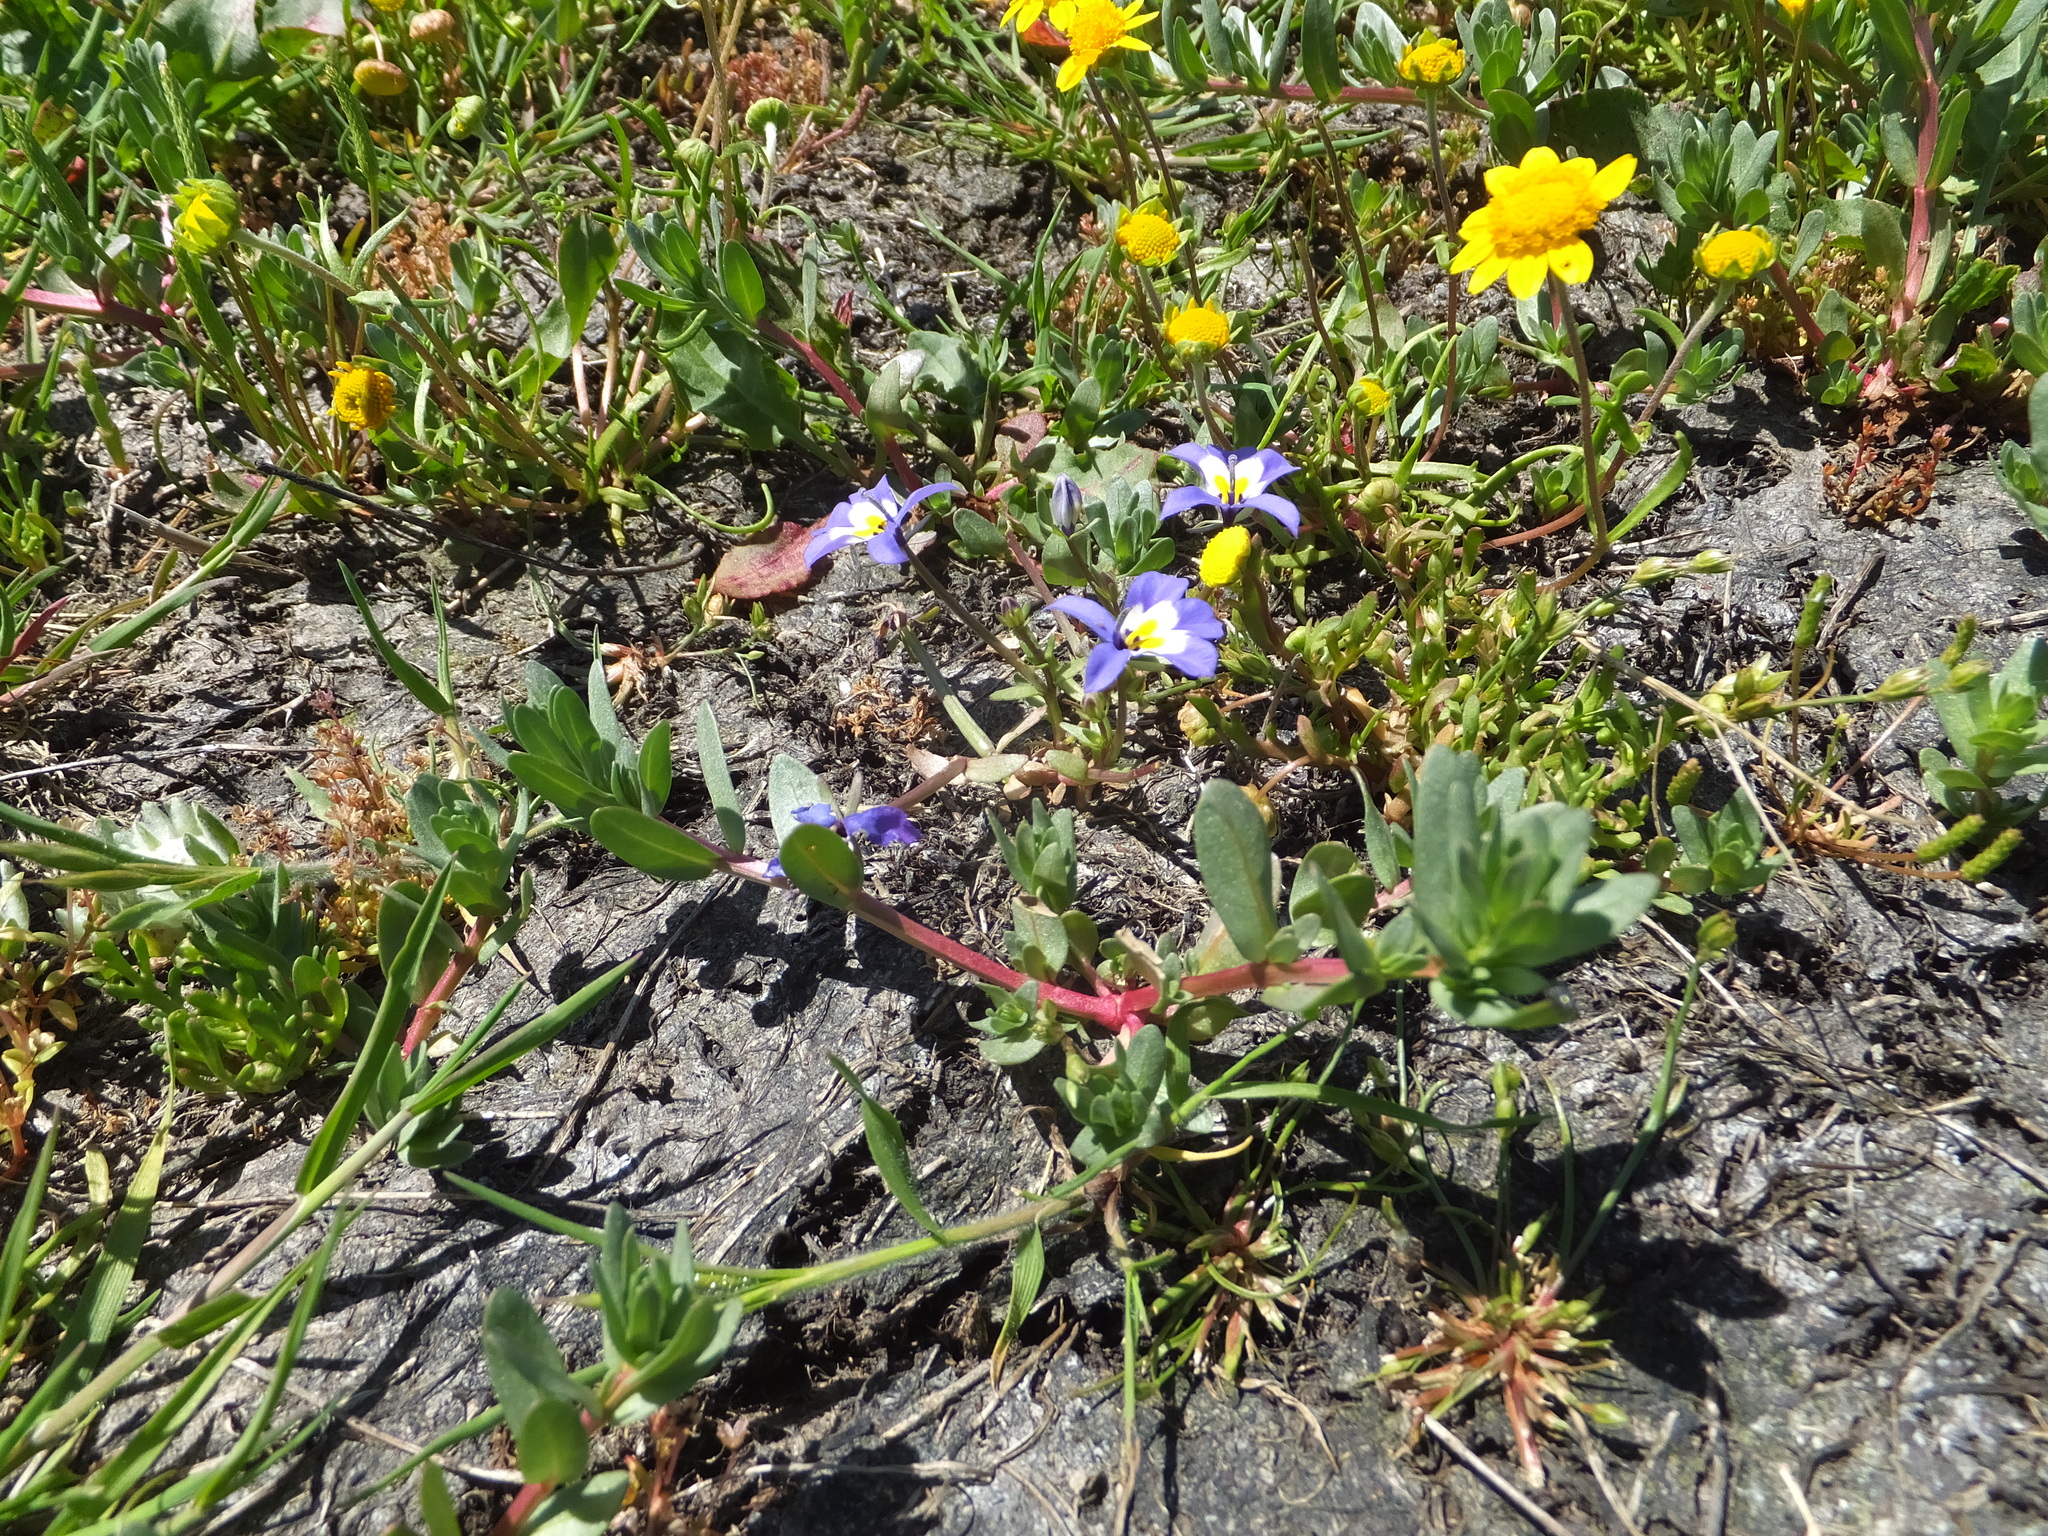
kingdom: Plantae
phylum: Tracheophyta
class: Magnoliopsida
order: Asterales
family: Asteraceae
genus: Lasthenia
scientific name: Lasthenia conjugens
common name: Contra costa goldfields
